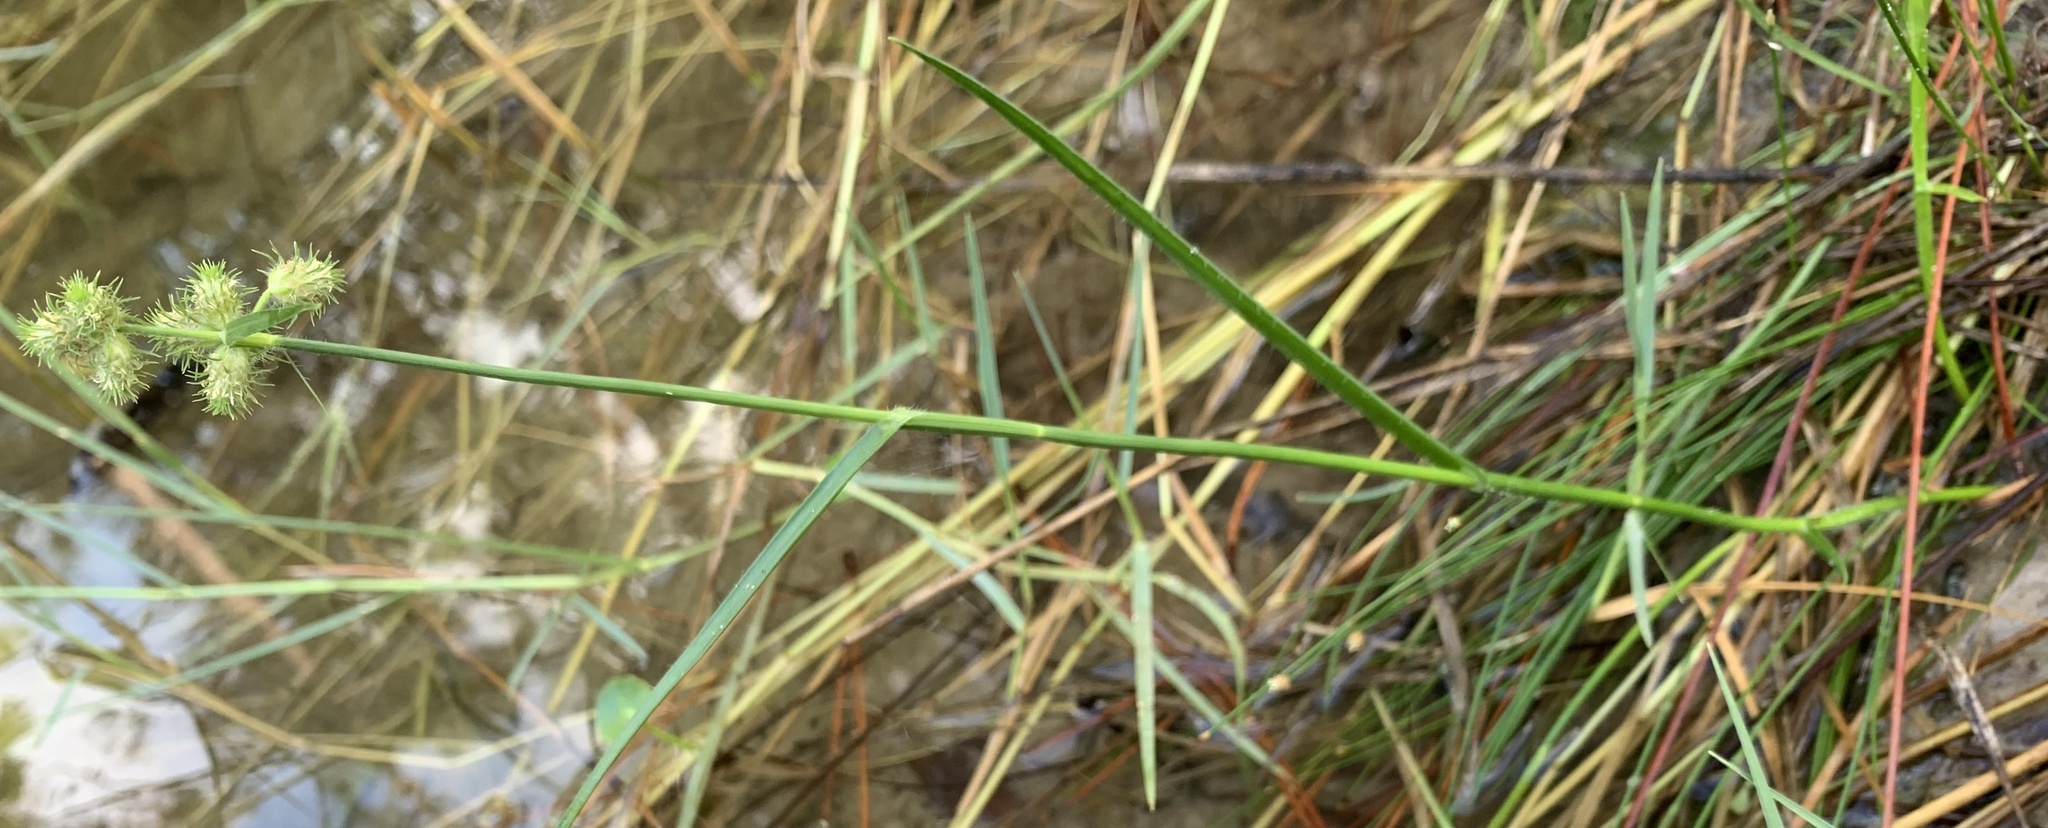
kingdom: Plantae
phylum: Tracheophyta
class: Liliopsida
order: Poales
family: Cyperaceae
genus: Fuirena
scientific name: Fuirena breviseta
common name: Saltmarsh umbrella sedge
